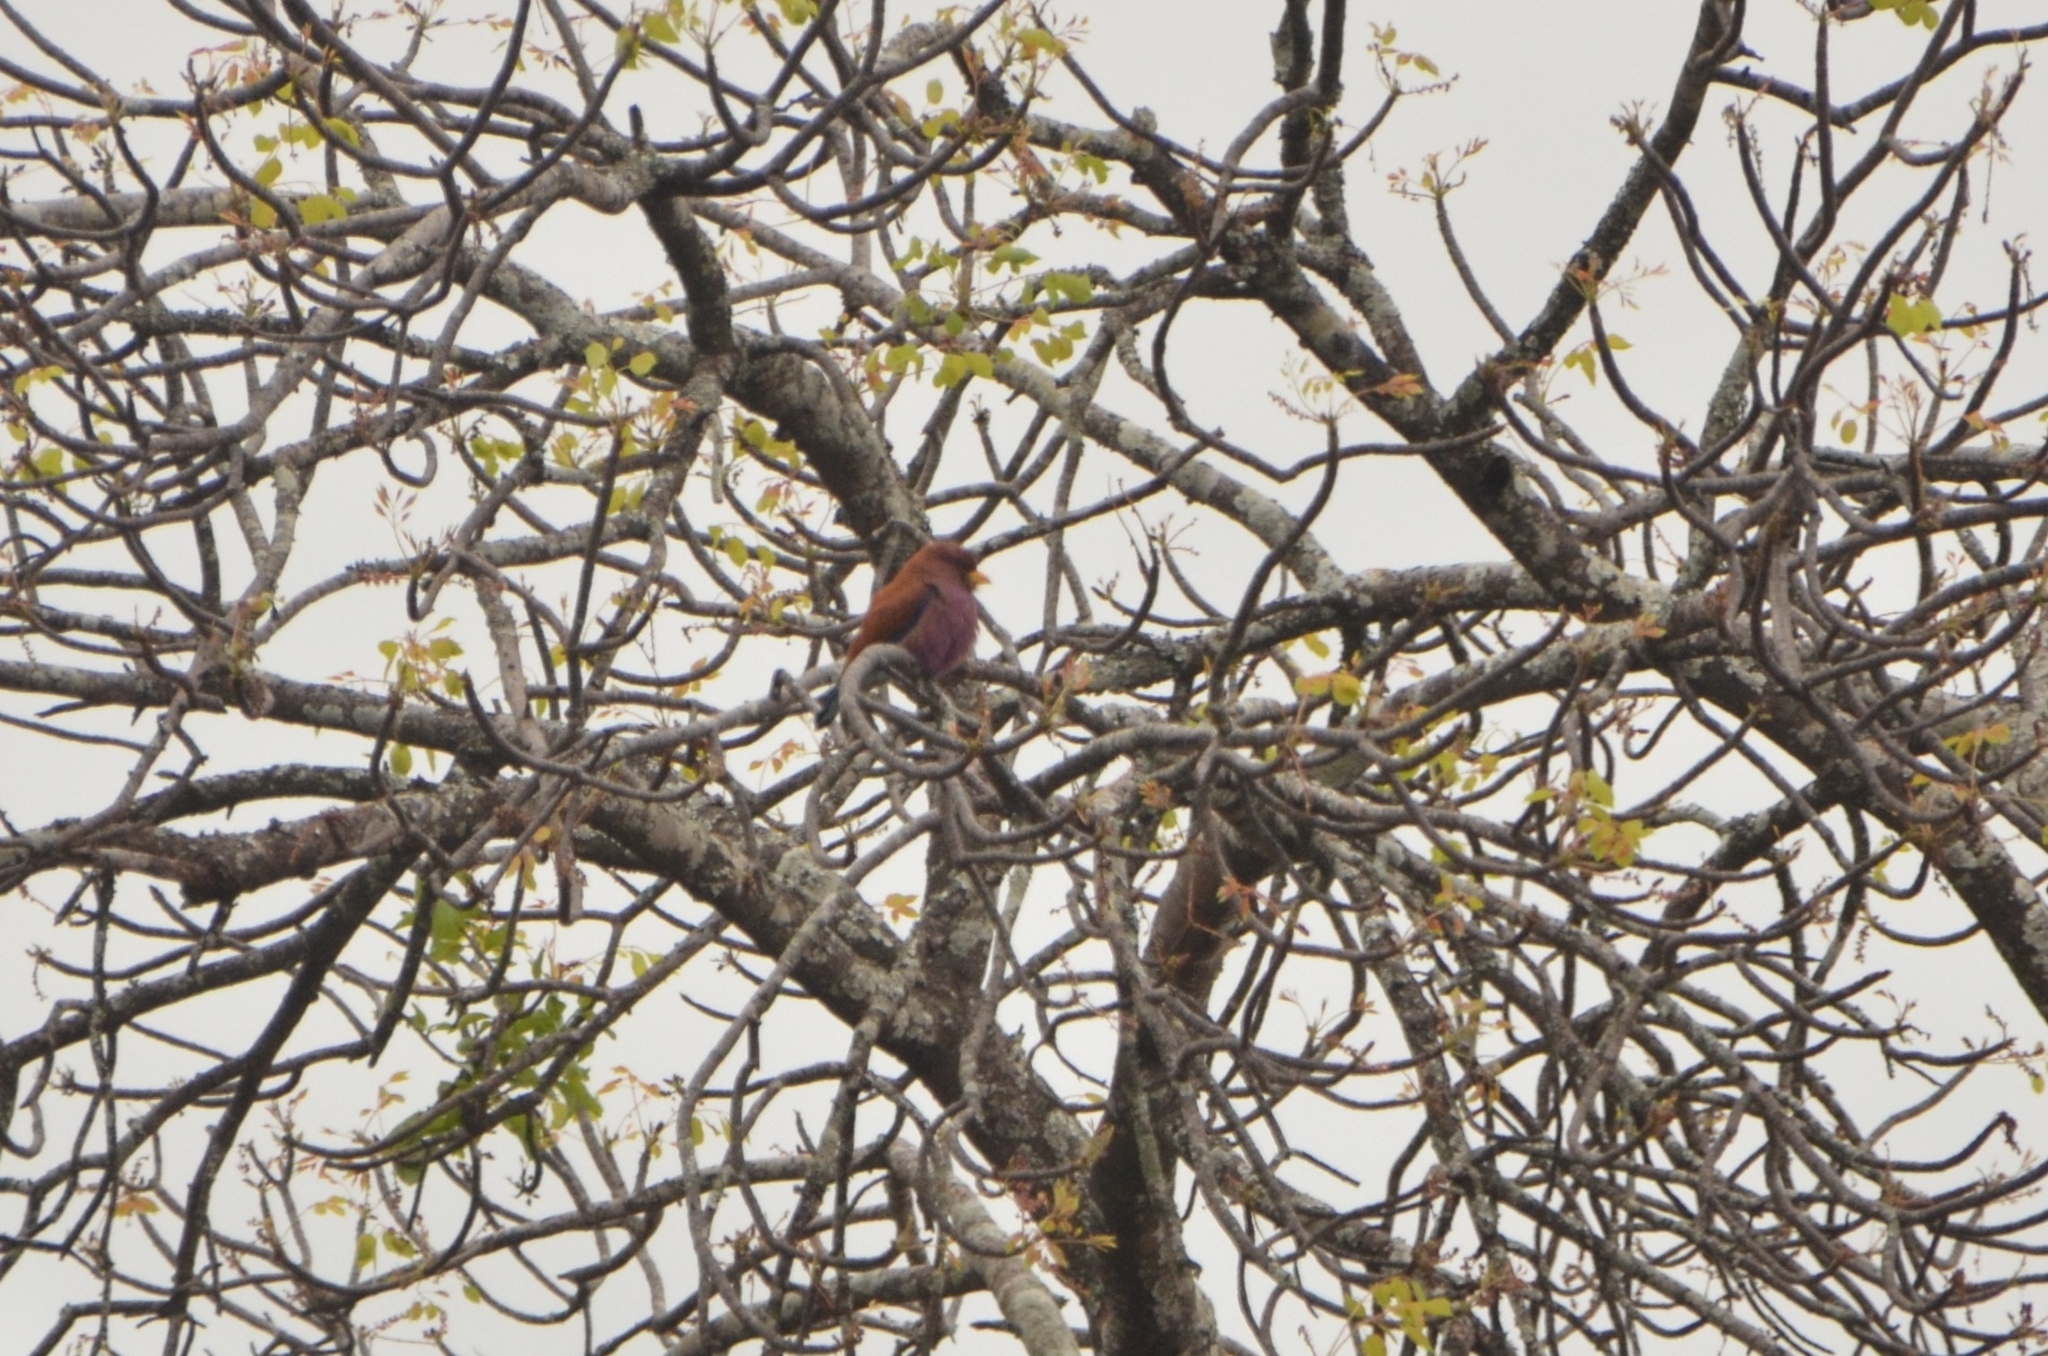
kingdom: Animalia
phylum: Chordata
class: Aves
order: Coraciiformes
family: Coraciidae
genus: Eurystomus
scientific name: Eurystomus glaucurus
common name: Broad-billed roller
